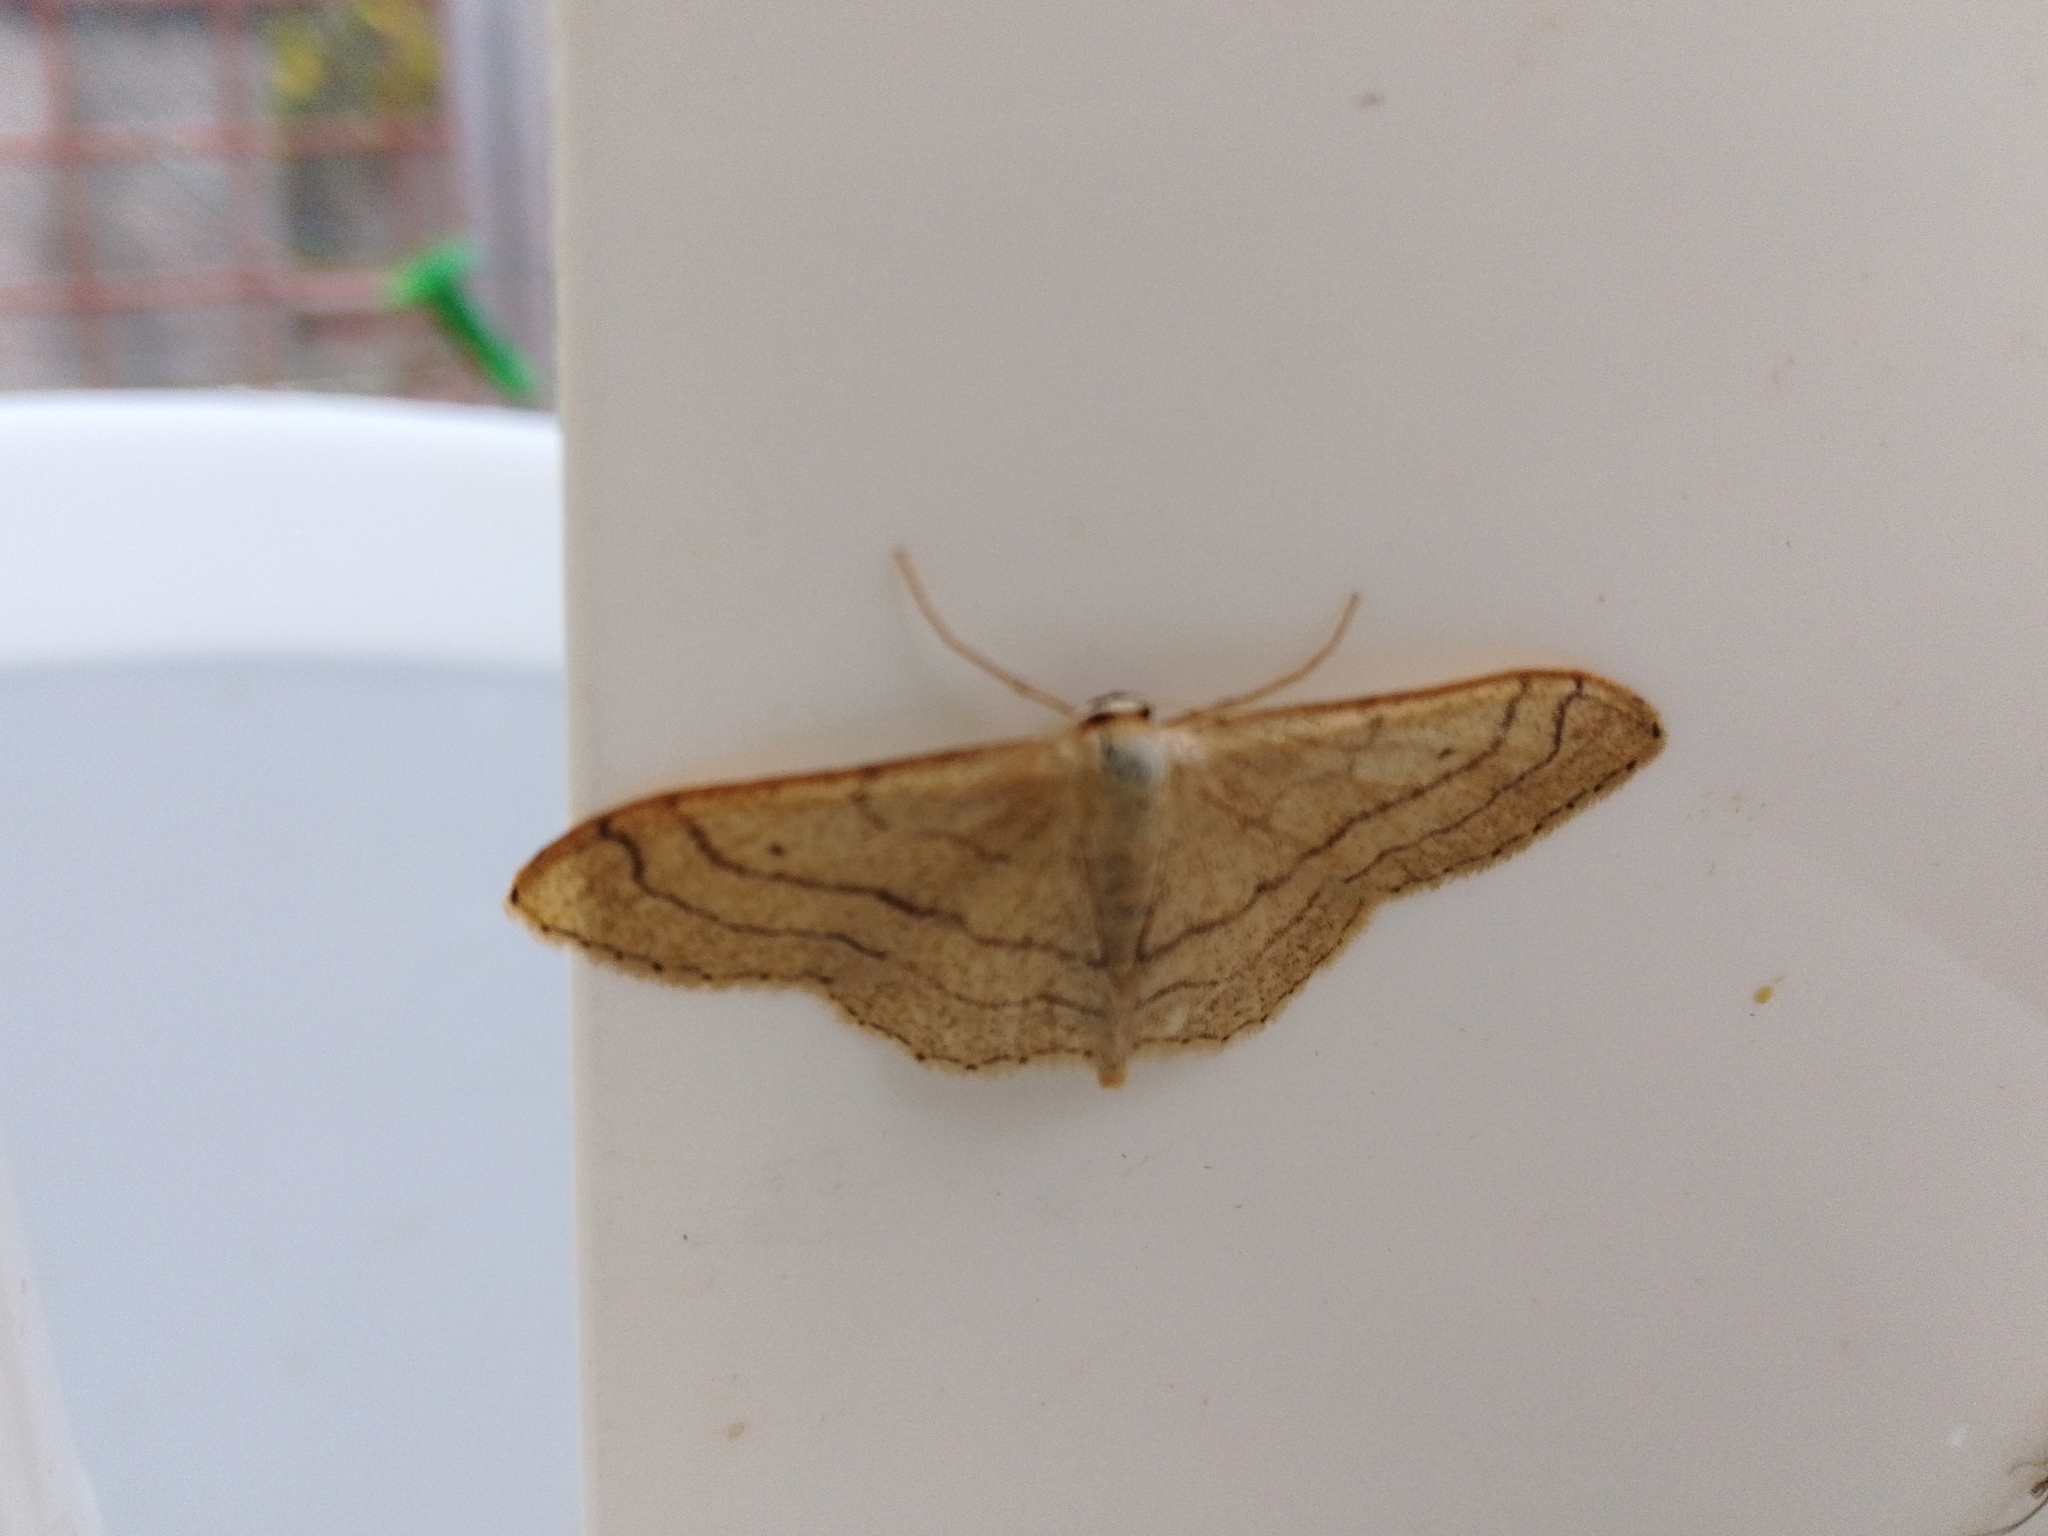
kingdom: Animalia
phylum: Arthropoda
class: Insecta
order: Lepidoptera
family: Geometridae
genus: Idaea
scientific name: Idaea aversata
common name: Riband wave
